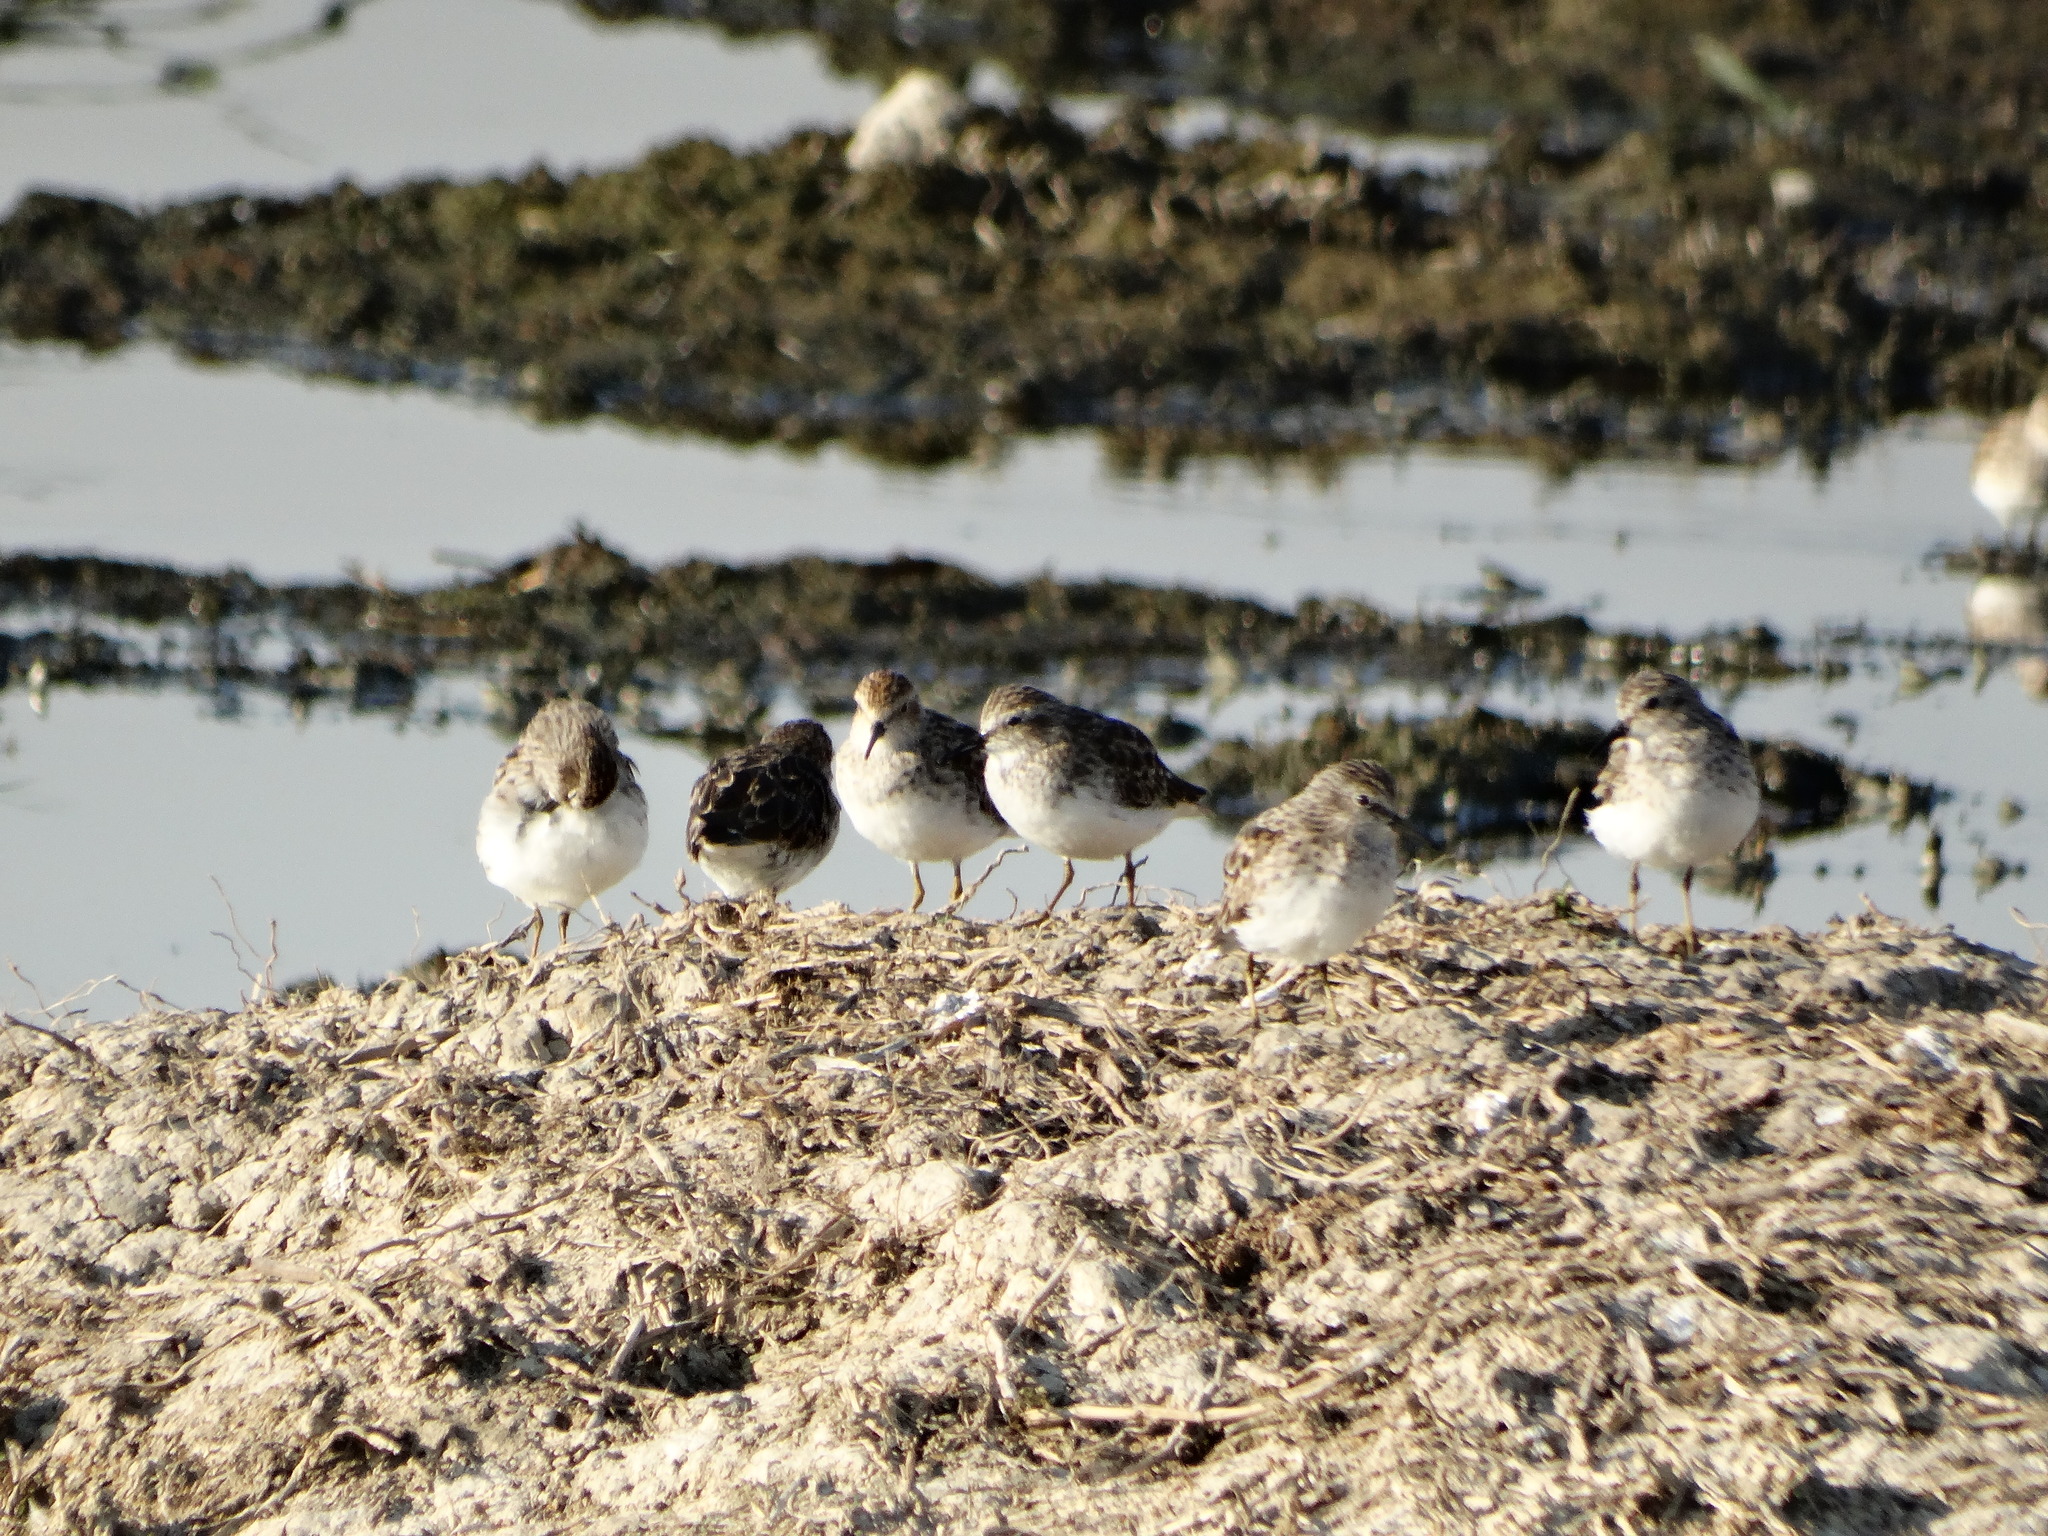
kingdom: Animalia
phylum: Chordata
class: Aves
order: Charadriiformes
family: Scolopacidae
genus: Calidris
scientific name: Calidris minutilla
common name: Least sandpiper
